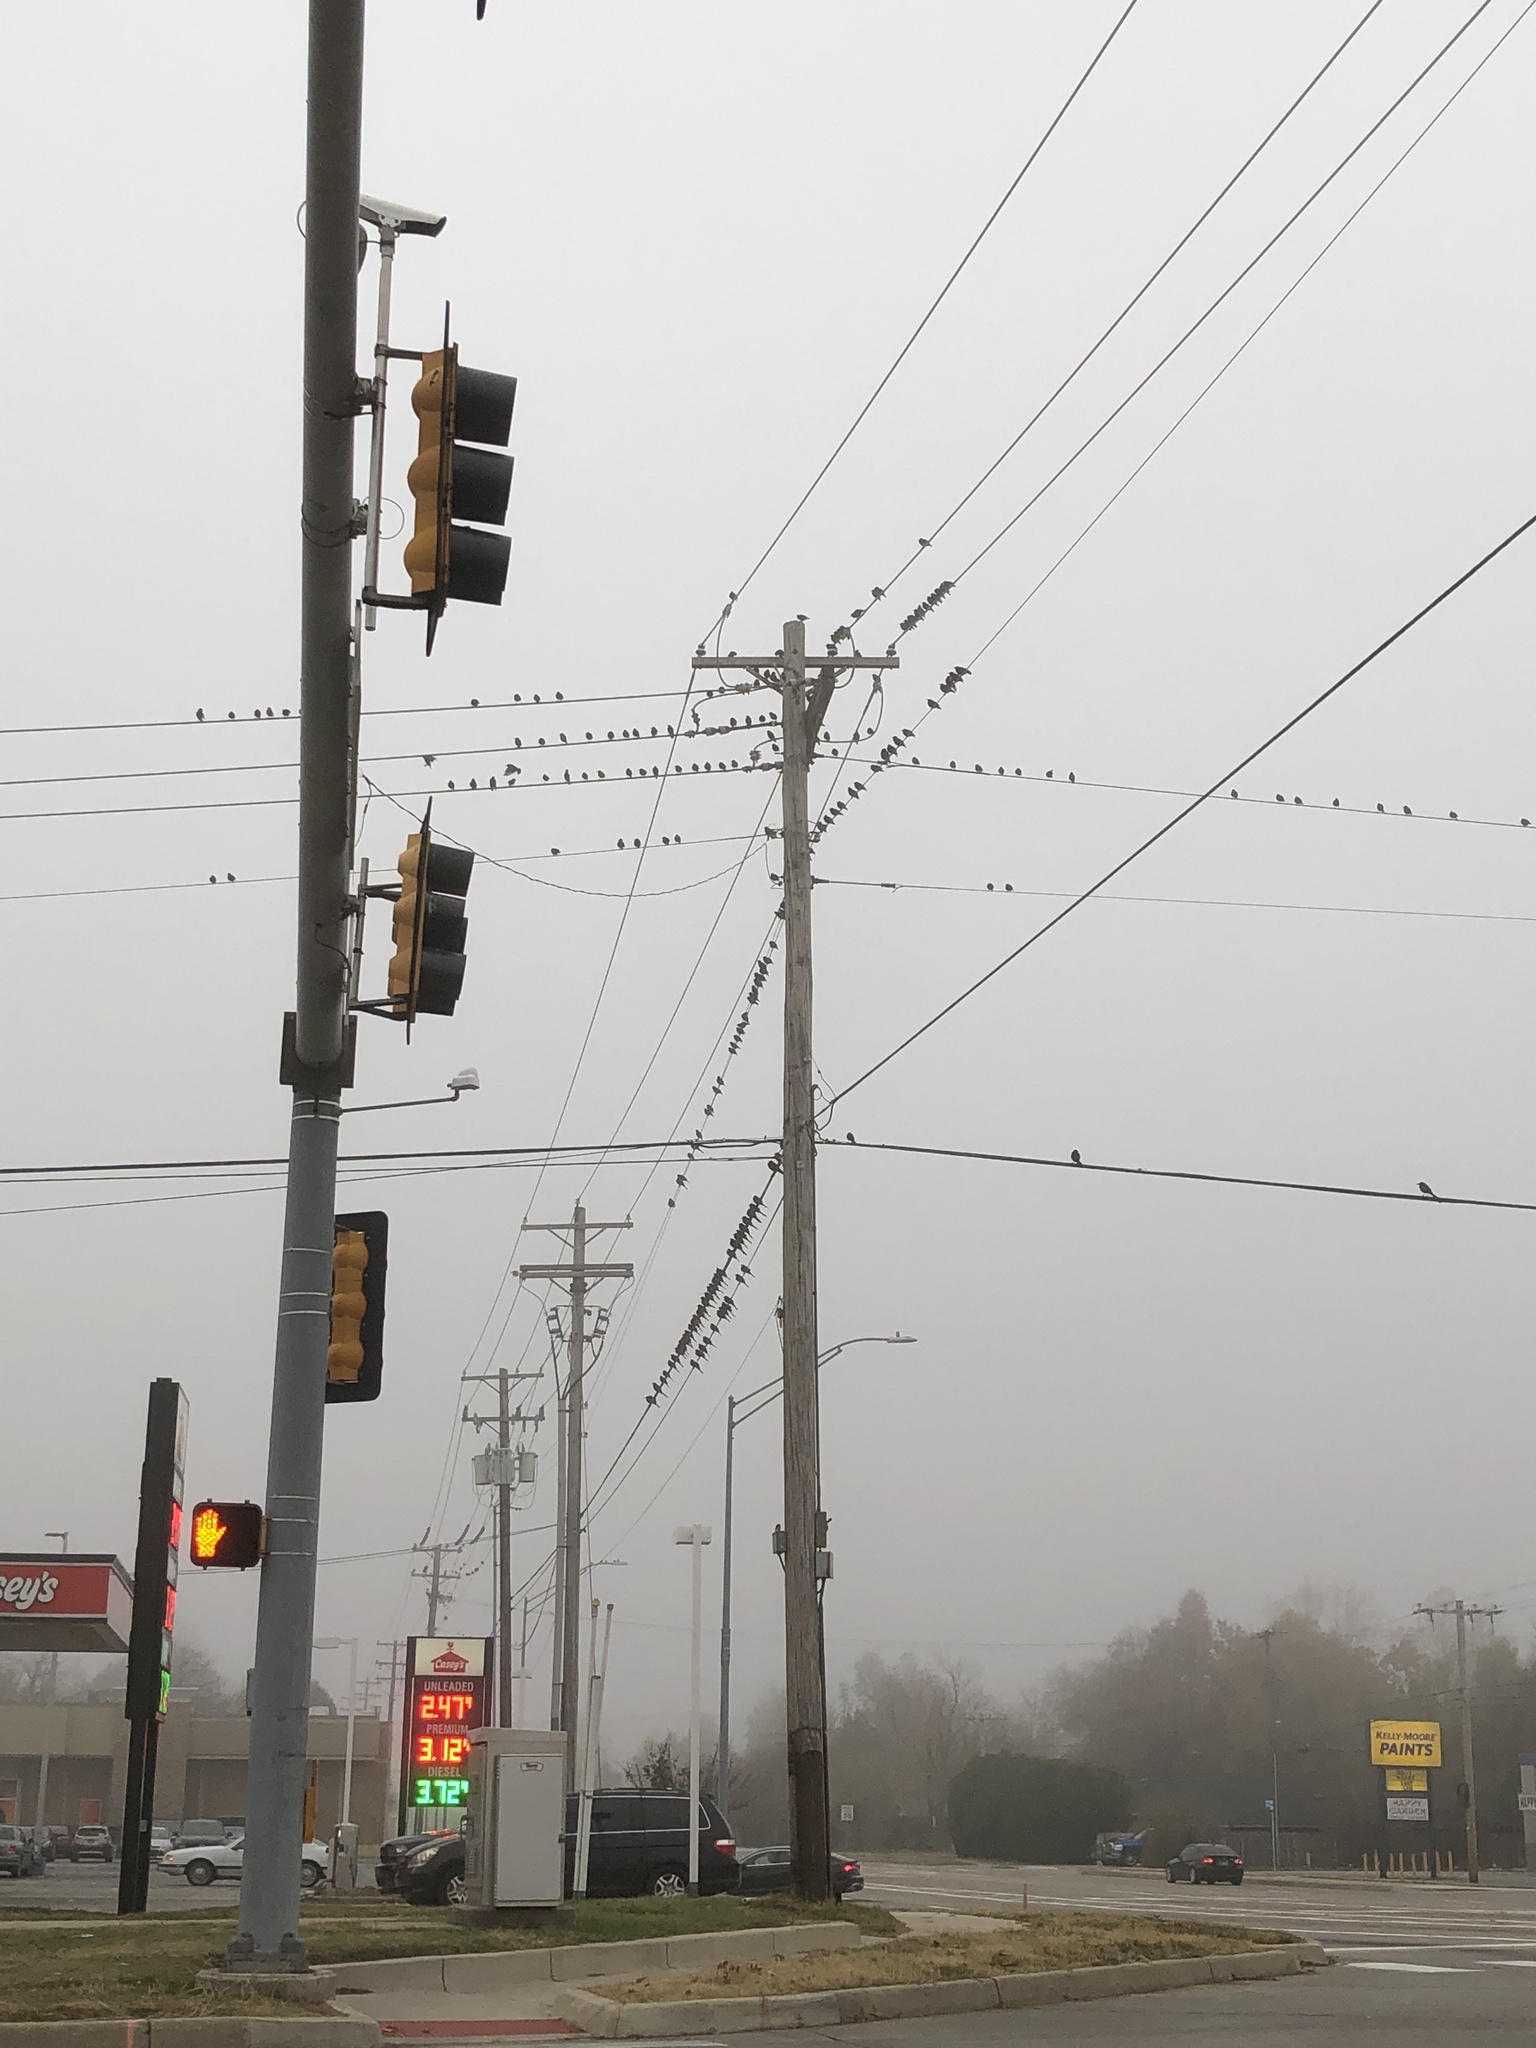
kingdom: Animalia
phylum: Chordata
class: Aves
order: Passeriformes
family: Sturnidae
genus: Sturnus
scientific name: Sturnus vulgaris
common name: Common starling
